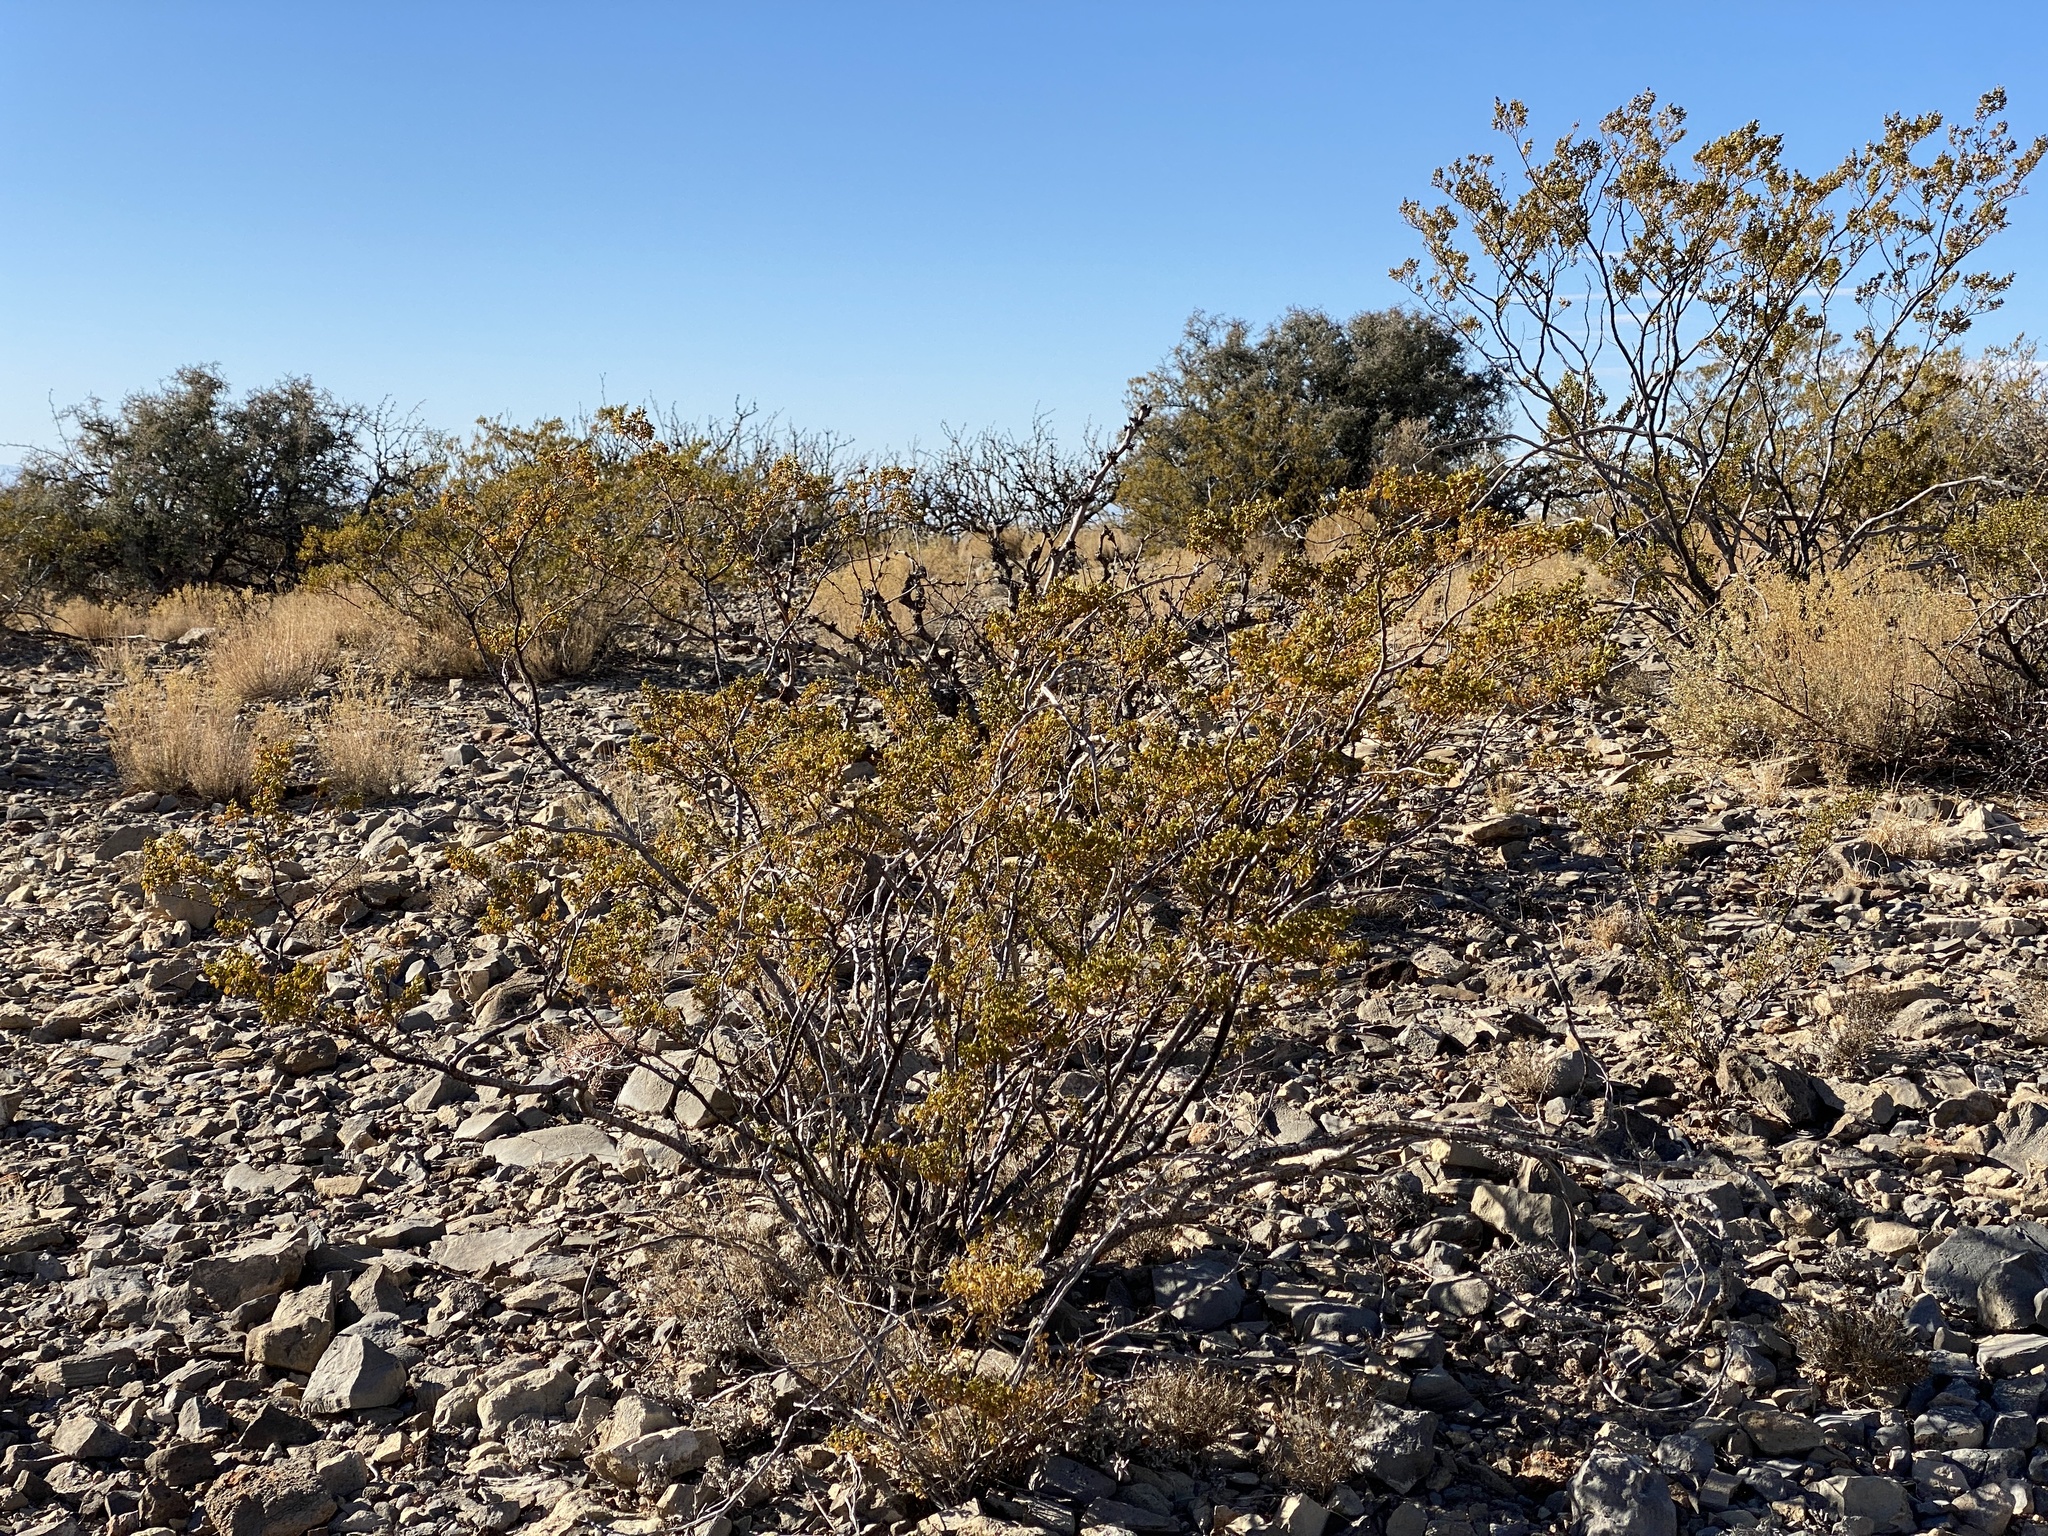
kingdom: Plantae
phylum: Tracheophyta
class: Magnoliopsida
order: Zygophyllales
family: Zygophyllaceae
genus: Larrea
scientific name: Larrea tridentata
